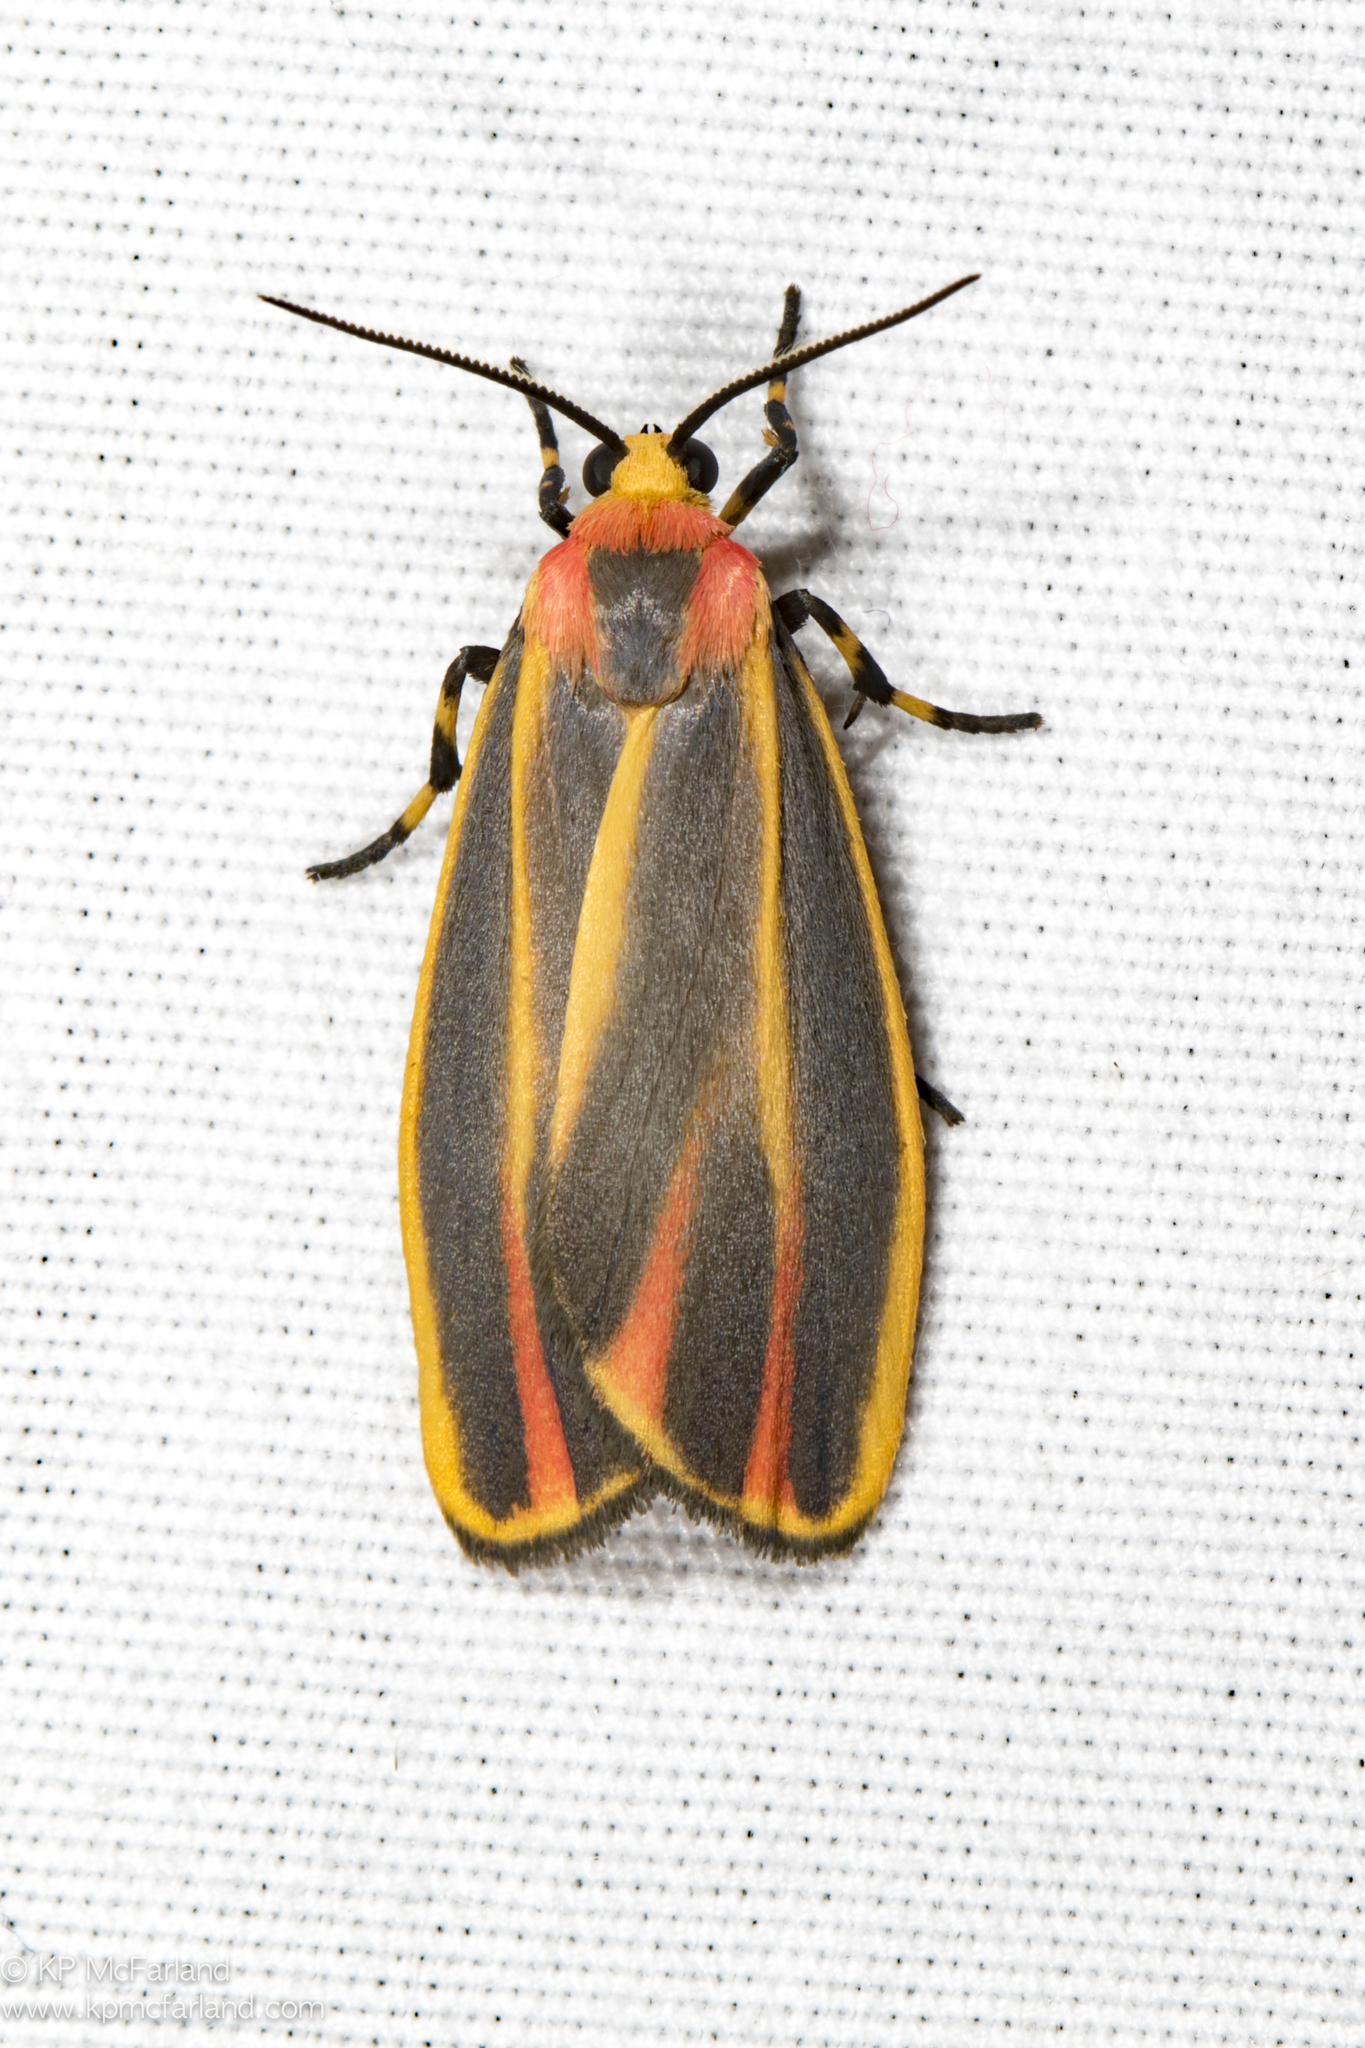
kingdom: Animalia
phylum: Arthropoda
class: Insecta
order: Lepidoptera
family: Erebidae
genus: Hypoprepia
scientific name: Hypoprepia fucosa
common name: Painted lichen moth
